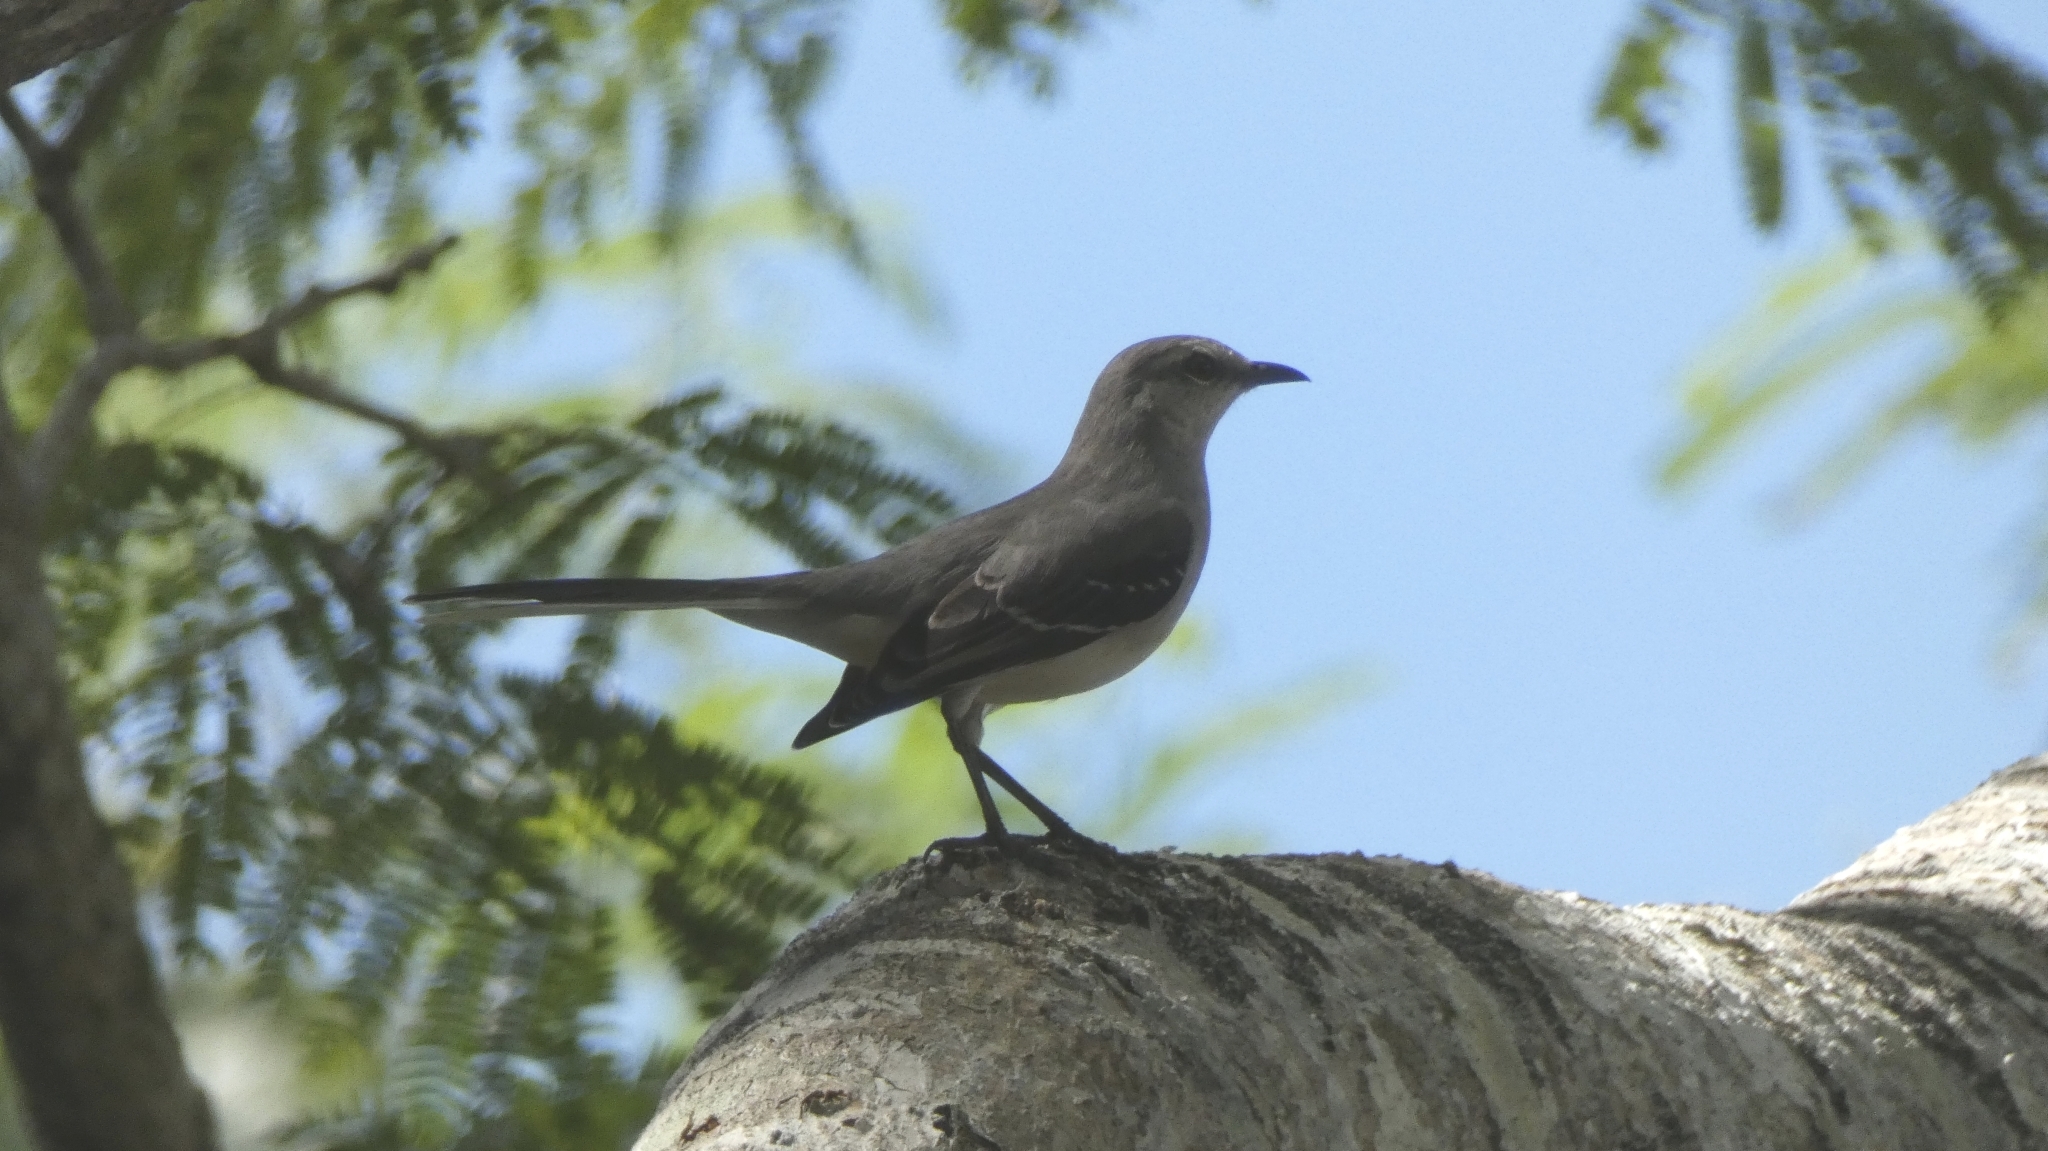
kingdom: Animalia
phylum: Chordata
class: Aves
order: Passeriformes
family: Mimidae
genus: Mimus
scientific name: Mimus gilvus
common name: Tropical mockingbird
